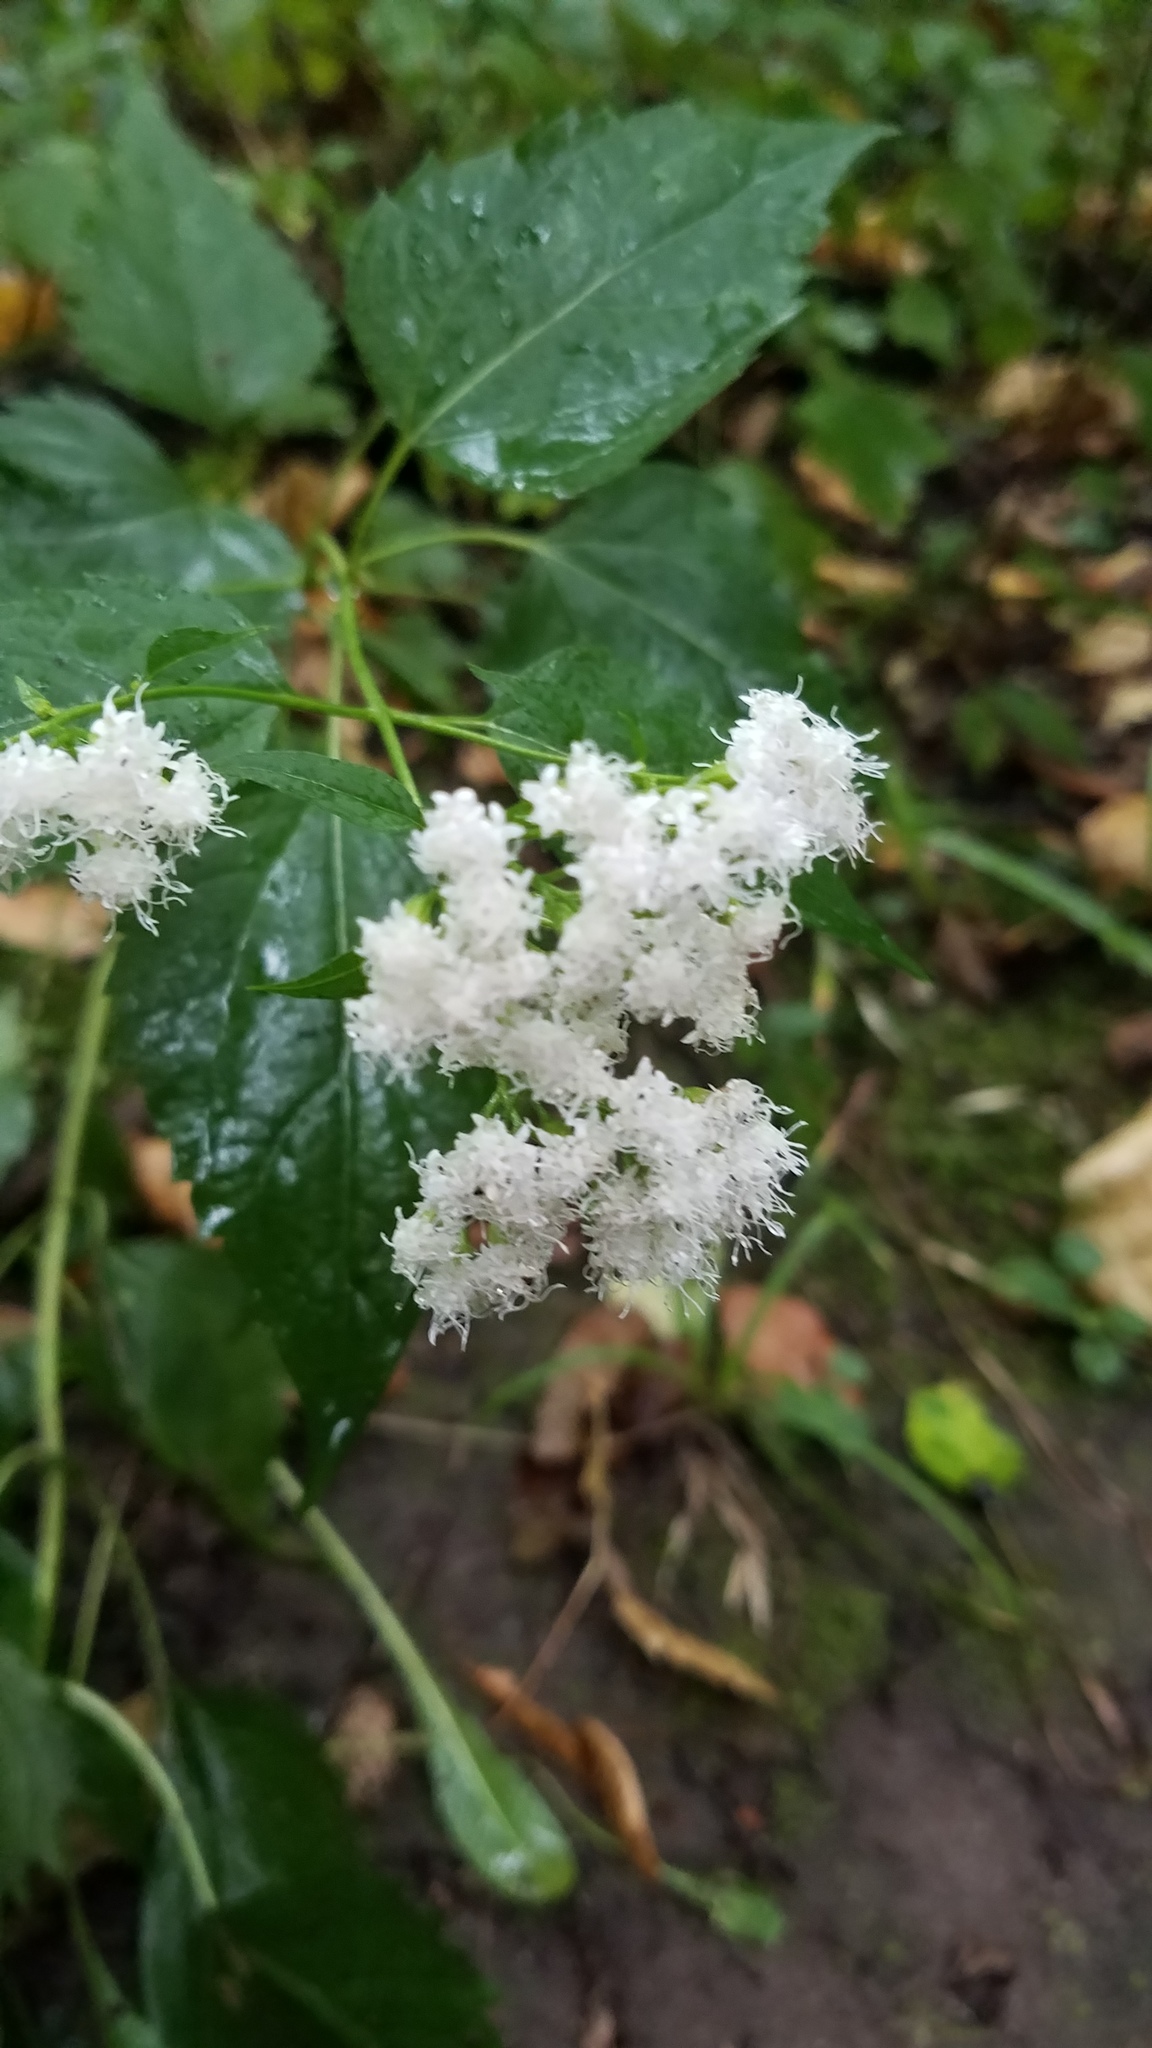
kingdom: Plantae
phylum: Tracheophyta
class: Magnoliopsida
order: Asterales
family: Asteraceae
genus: Ageratina
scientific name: Ageratina altissima
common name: White snakeroot
